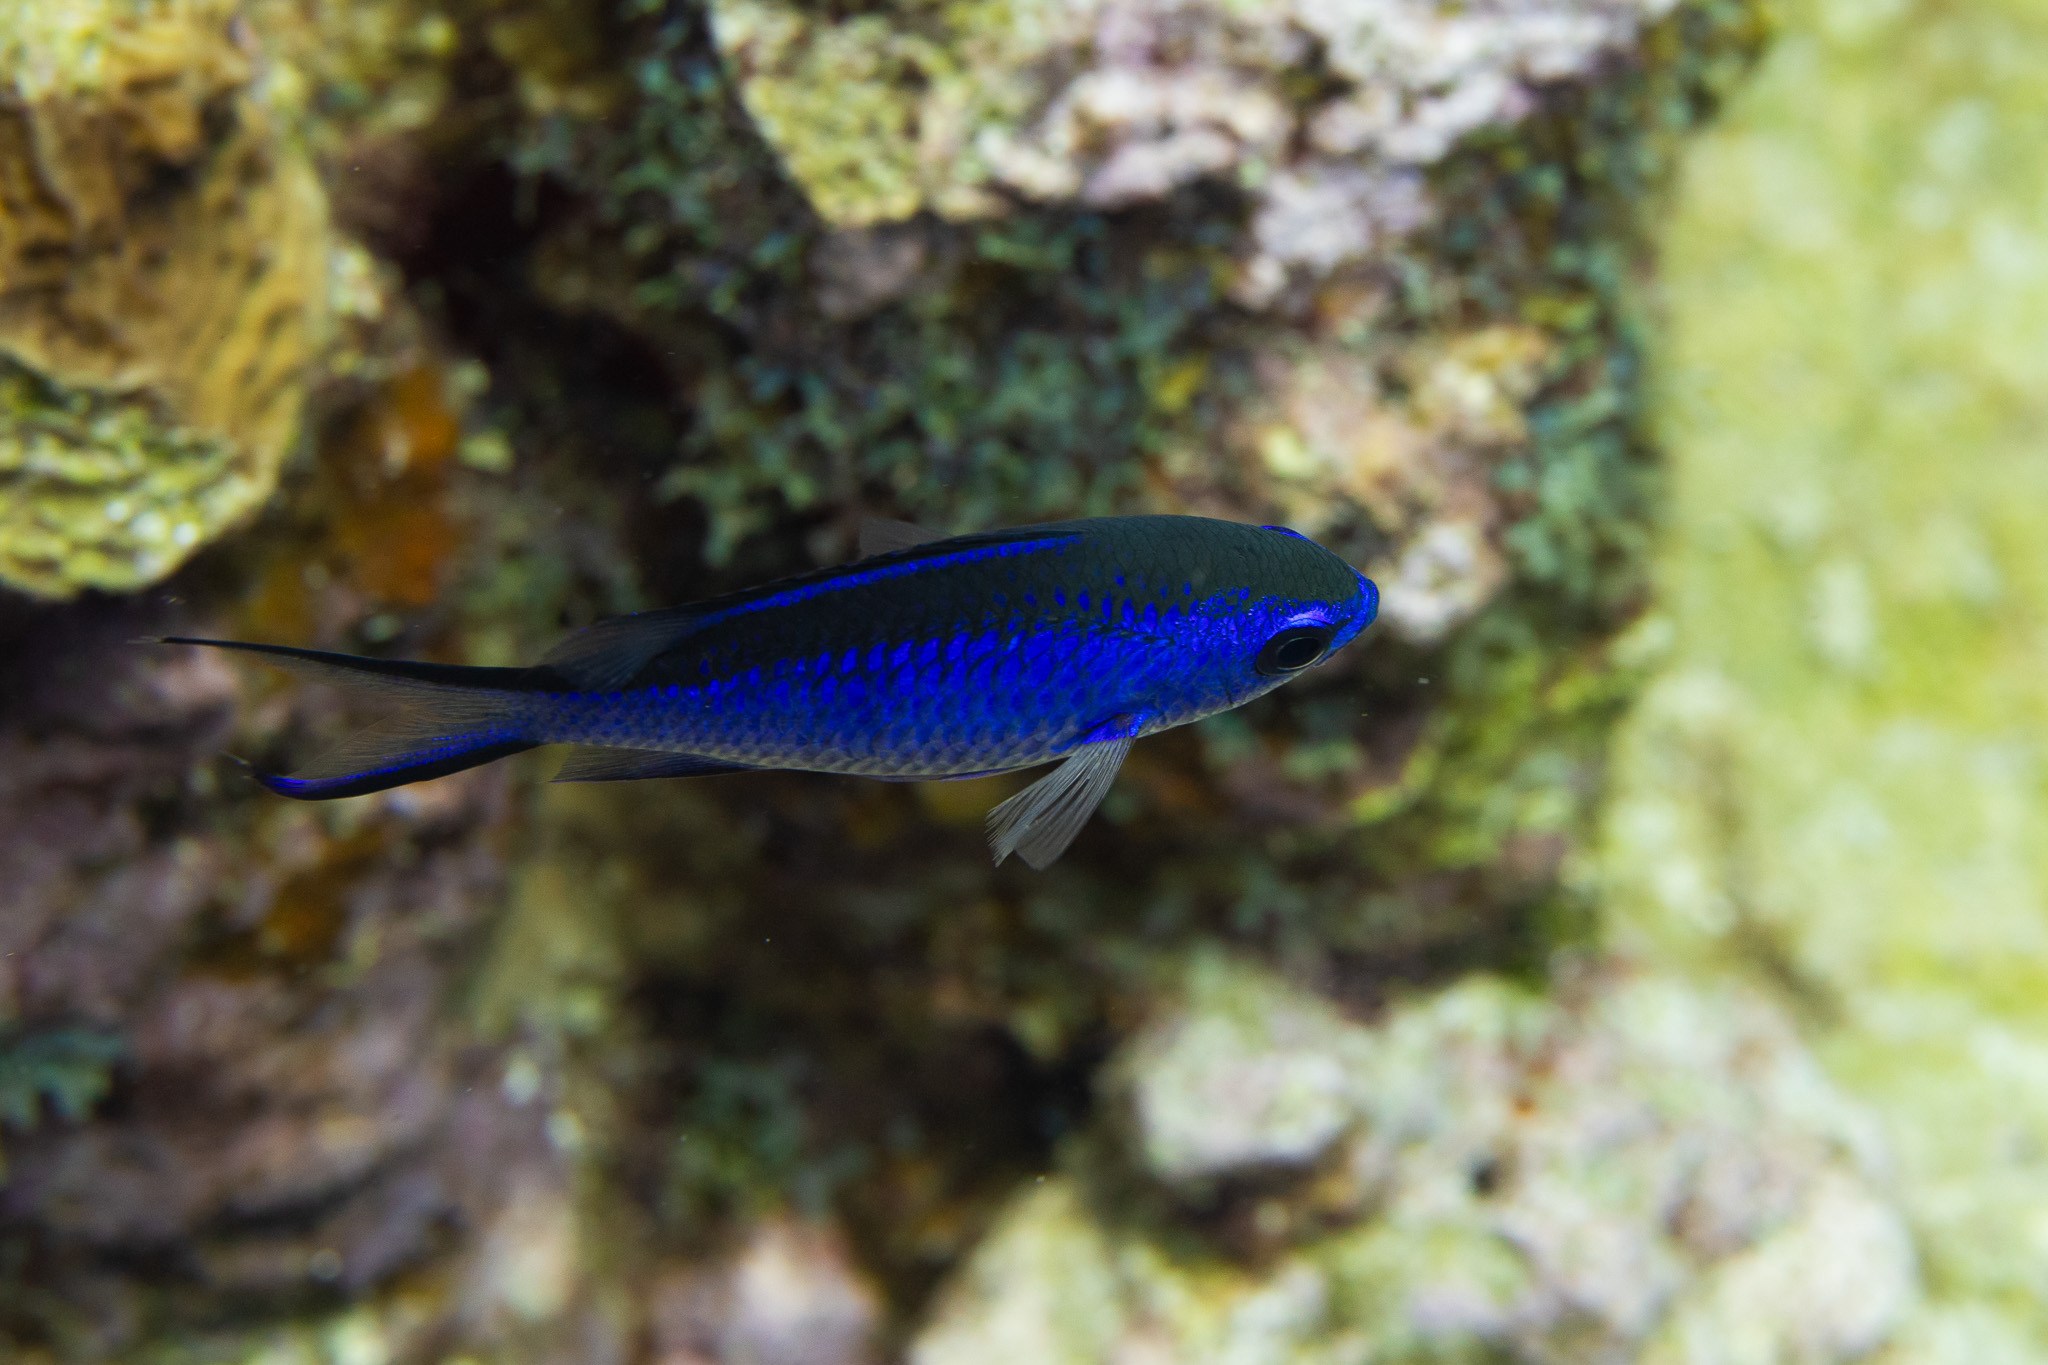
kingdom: Animalia
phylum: Chordata
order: Perciformes
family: Pomacentridae
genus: Chromis
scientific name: Chromis cyanea
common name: Blue chromis
